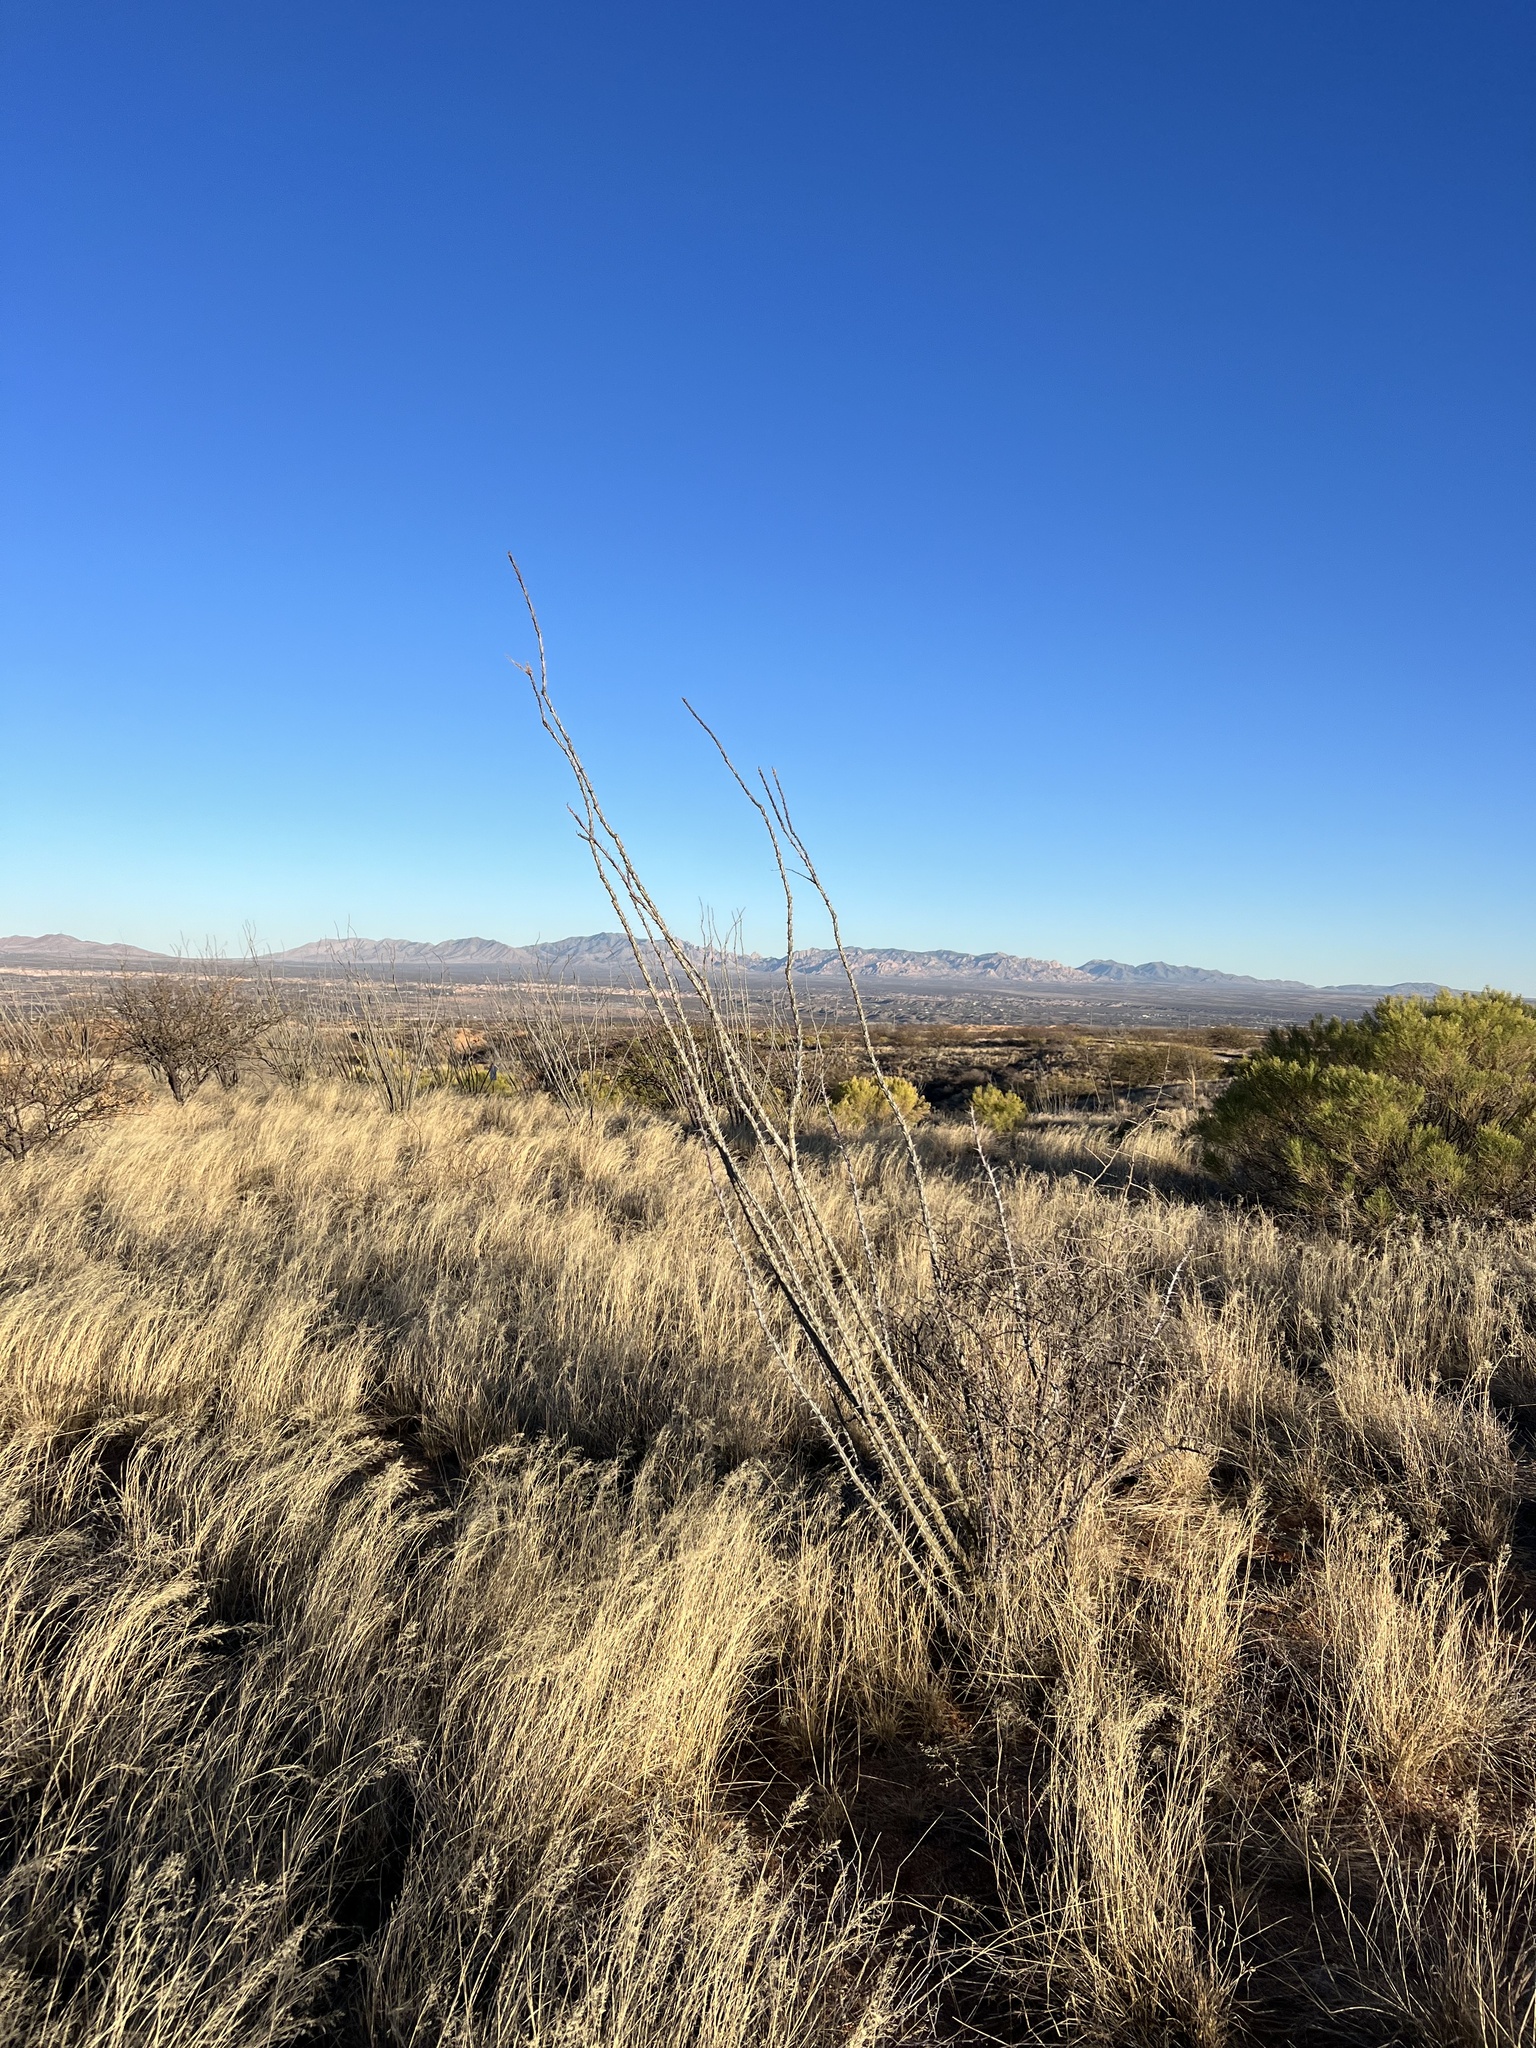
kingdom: Plantae
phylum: Tracheophyta
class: Magnoliopsida
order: Ericales
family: Fouquieriaceae
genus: Fouquieria
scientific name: Fouquieria splendens
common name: Vine-cactus
